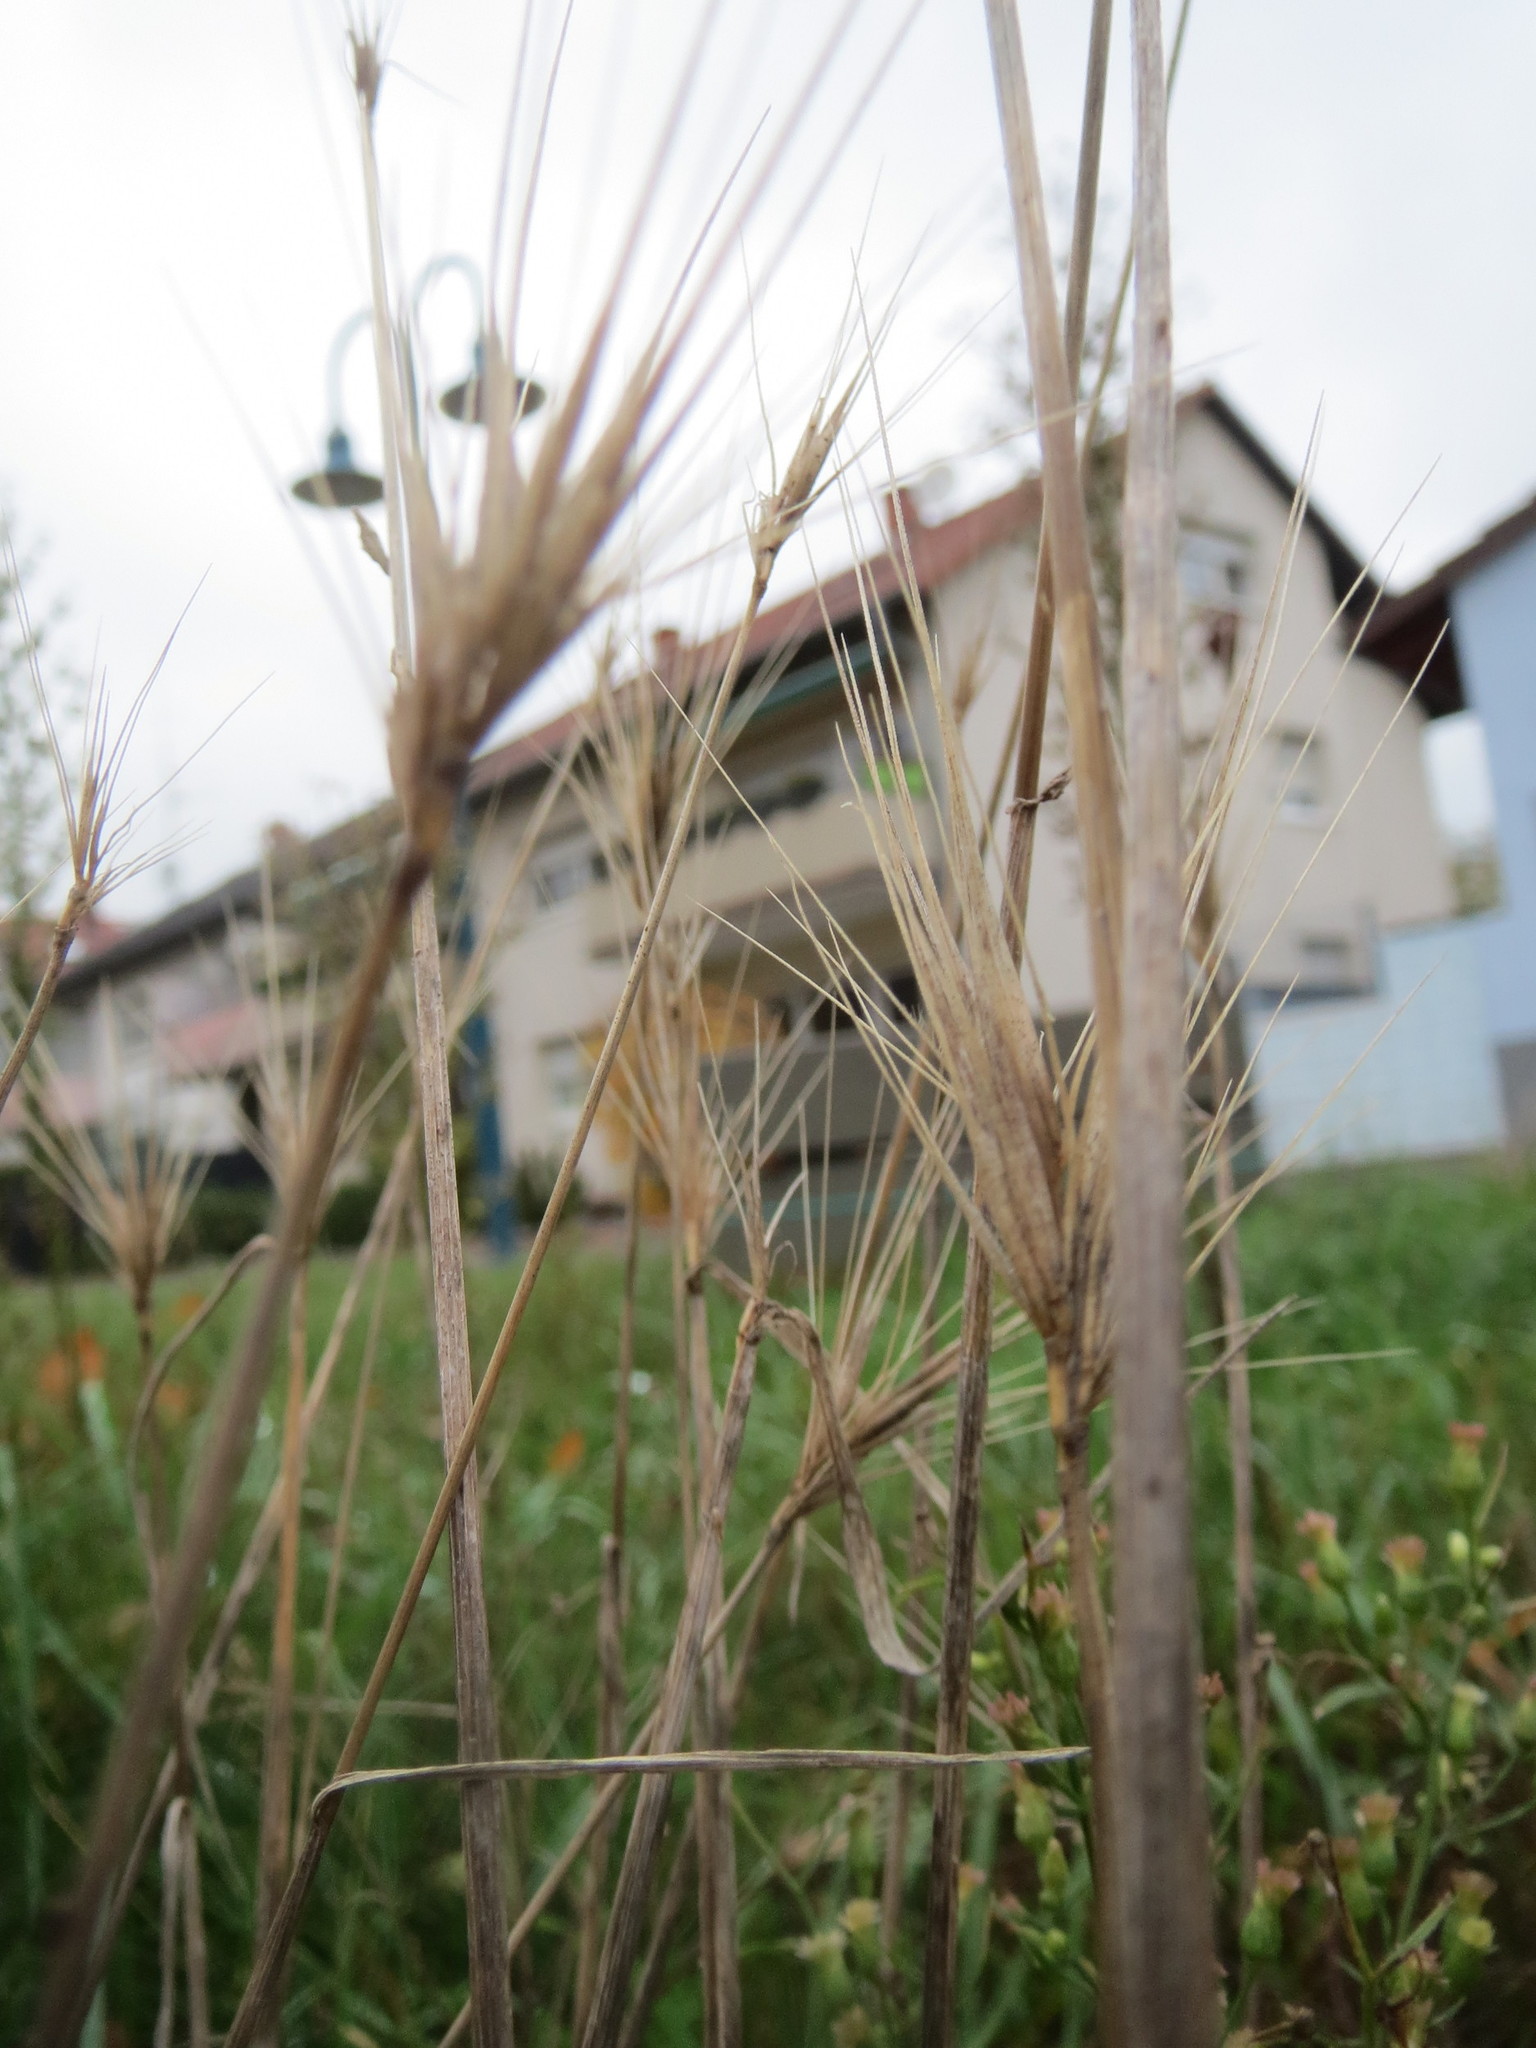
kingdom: Plantae
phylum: Tracheophyta
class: Liliopsida
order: Poales
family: Poaceae
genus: Hordeum
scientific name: Hordeum murinum
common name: Wall barley
